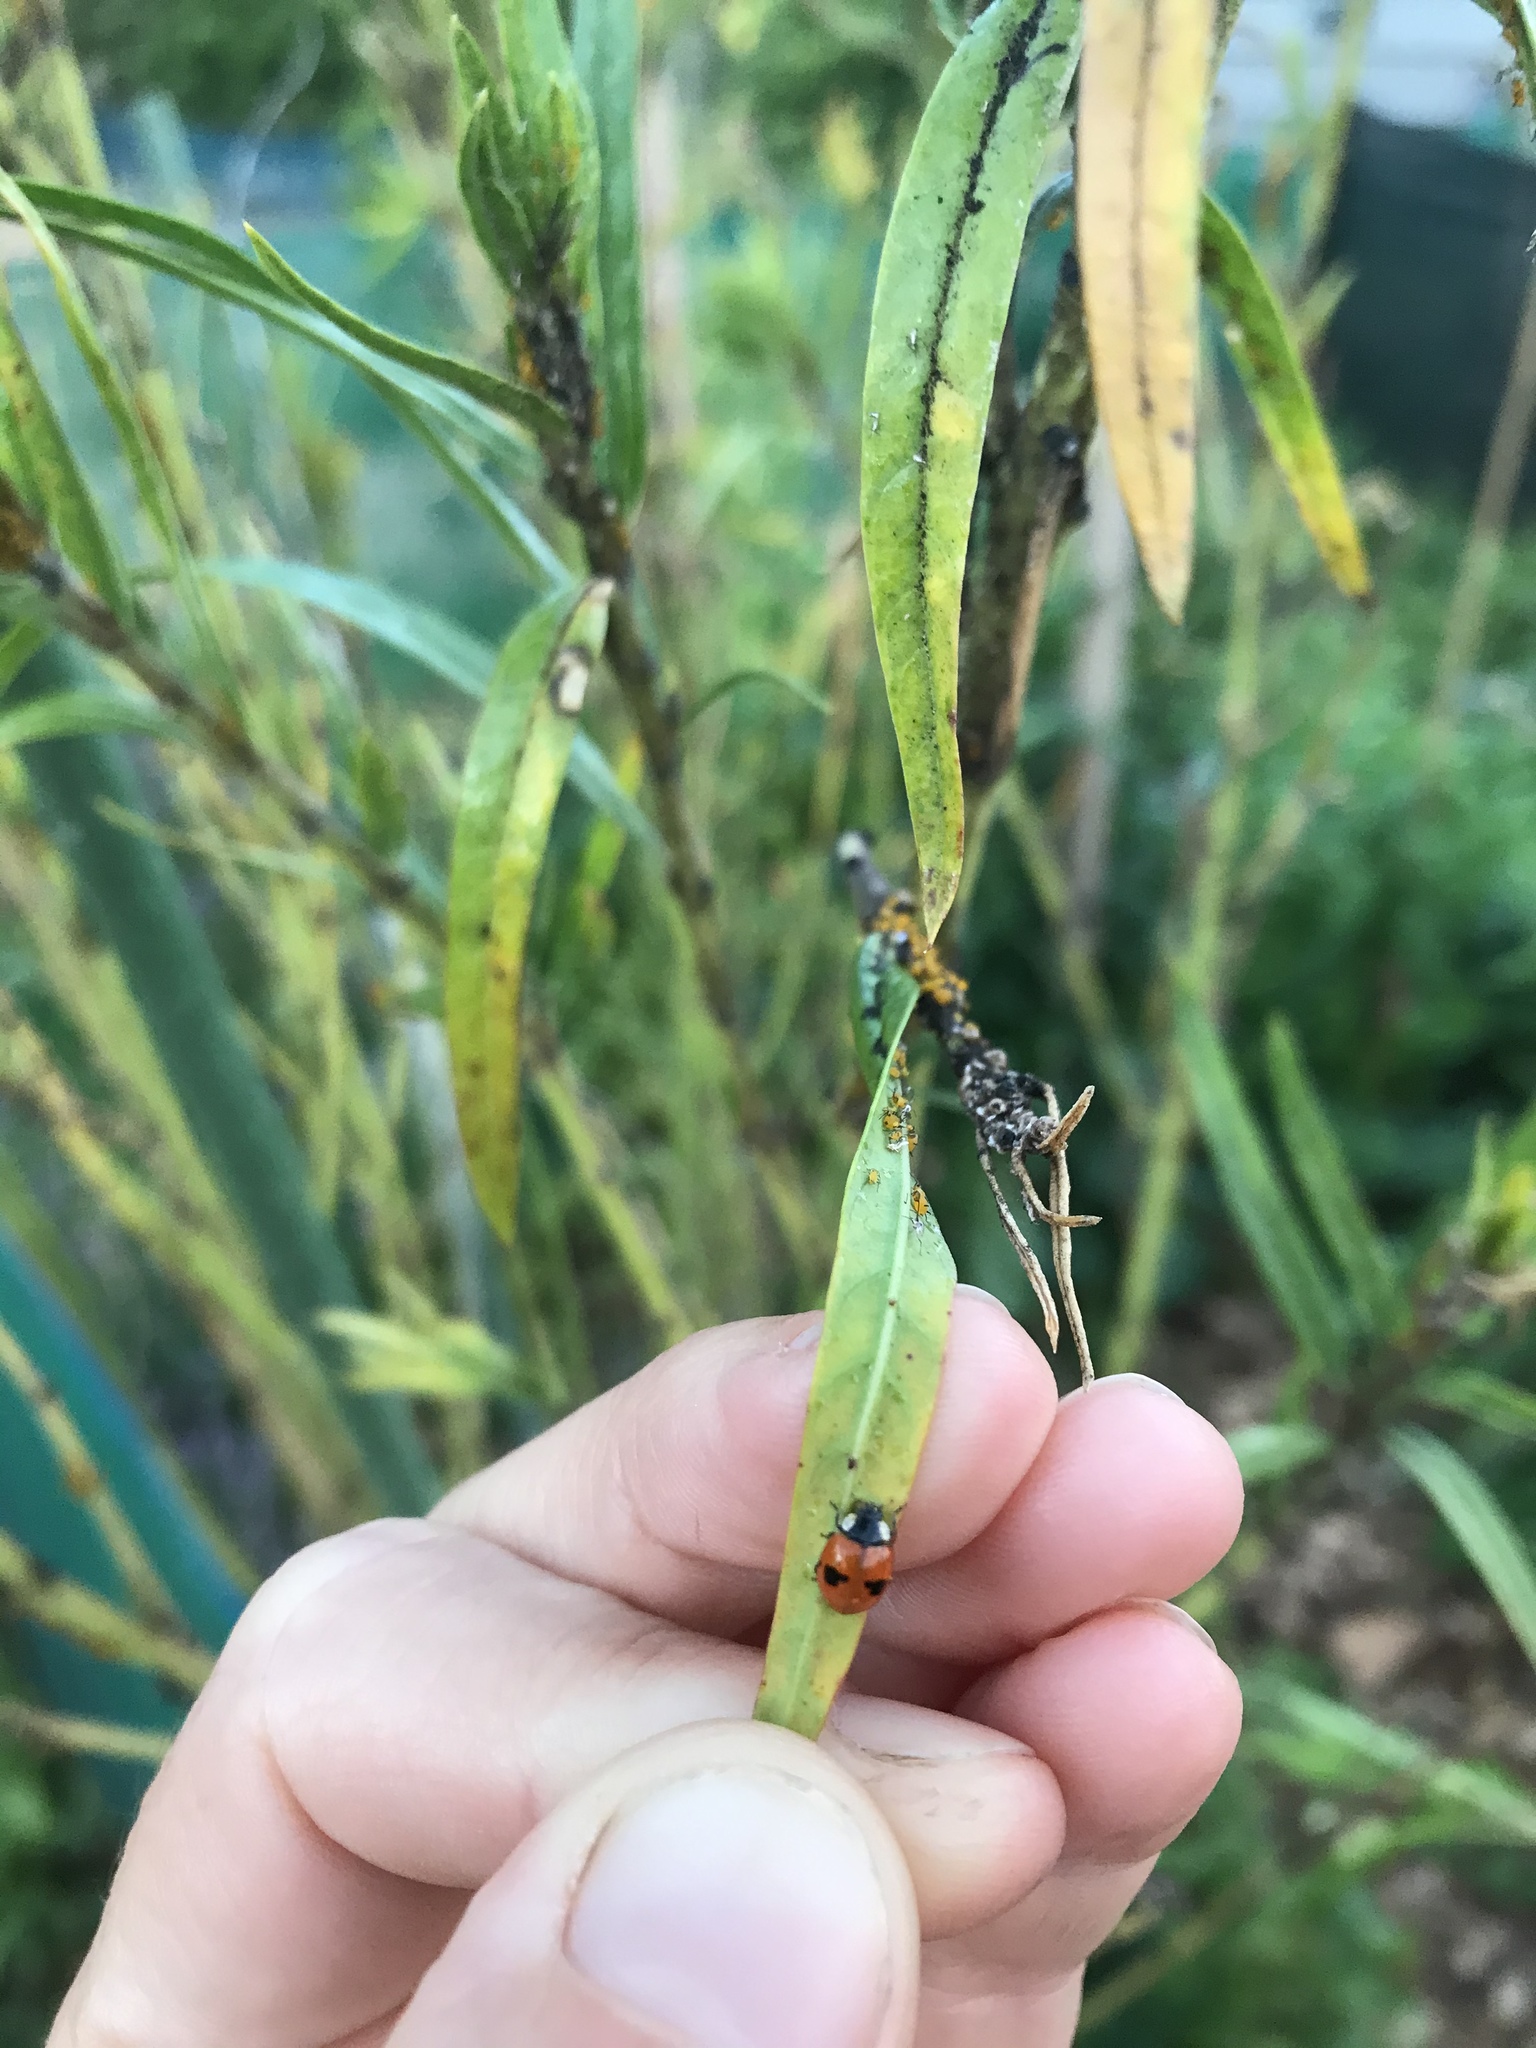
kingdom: Animalia
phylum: Arthropoda
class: Insecta
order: Coleoptera
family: Coccinellidae
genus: Adalia
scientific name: Adalia bipunctata
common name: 2-spot ladybird
